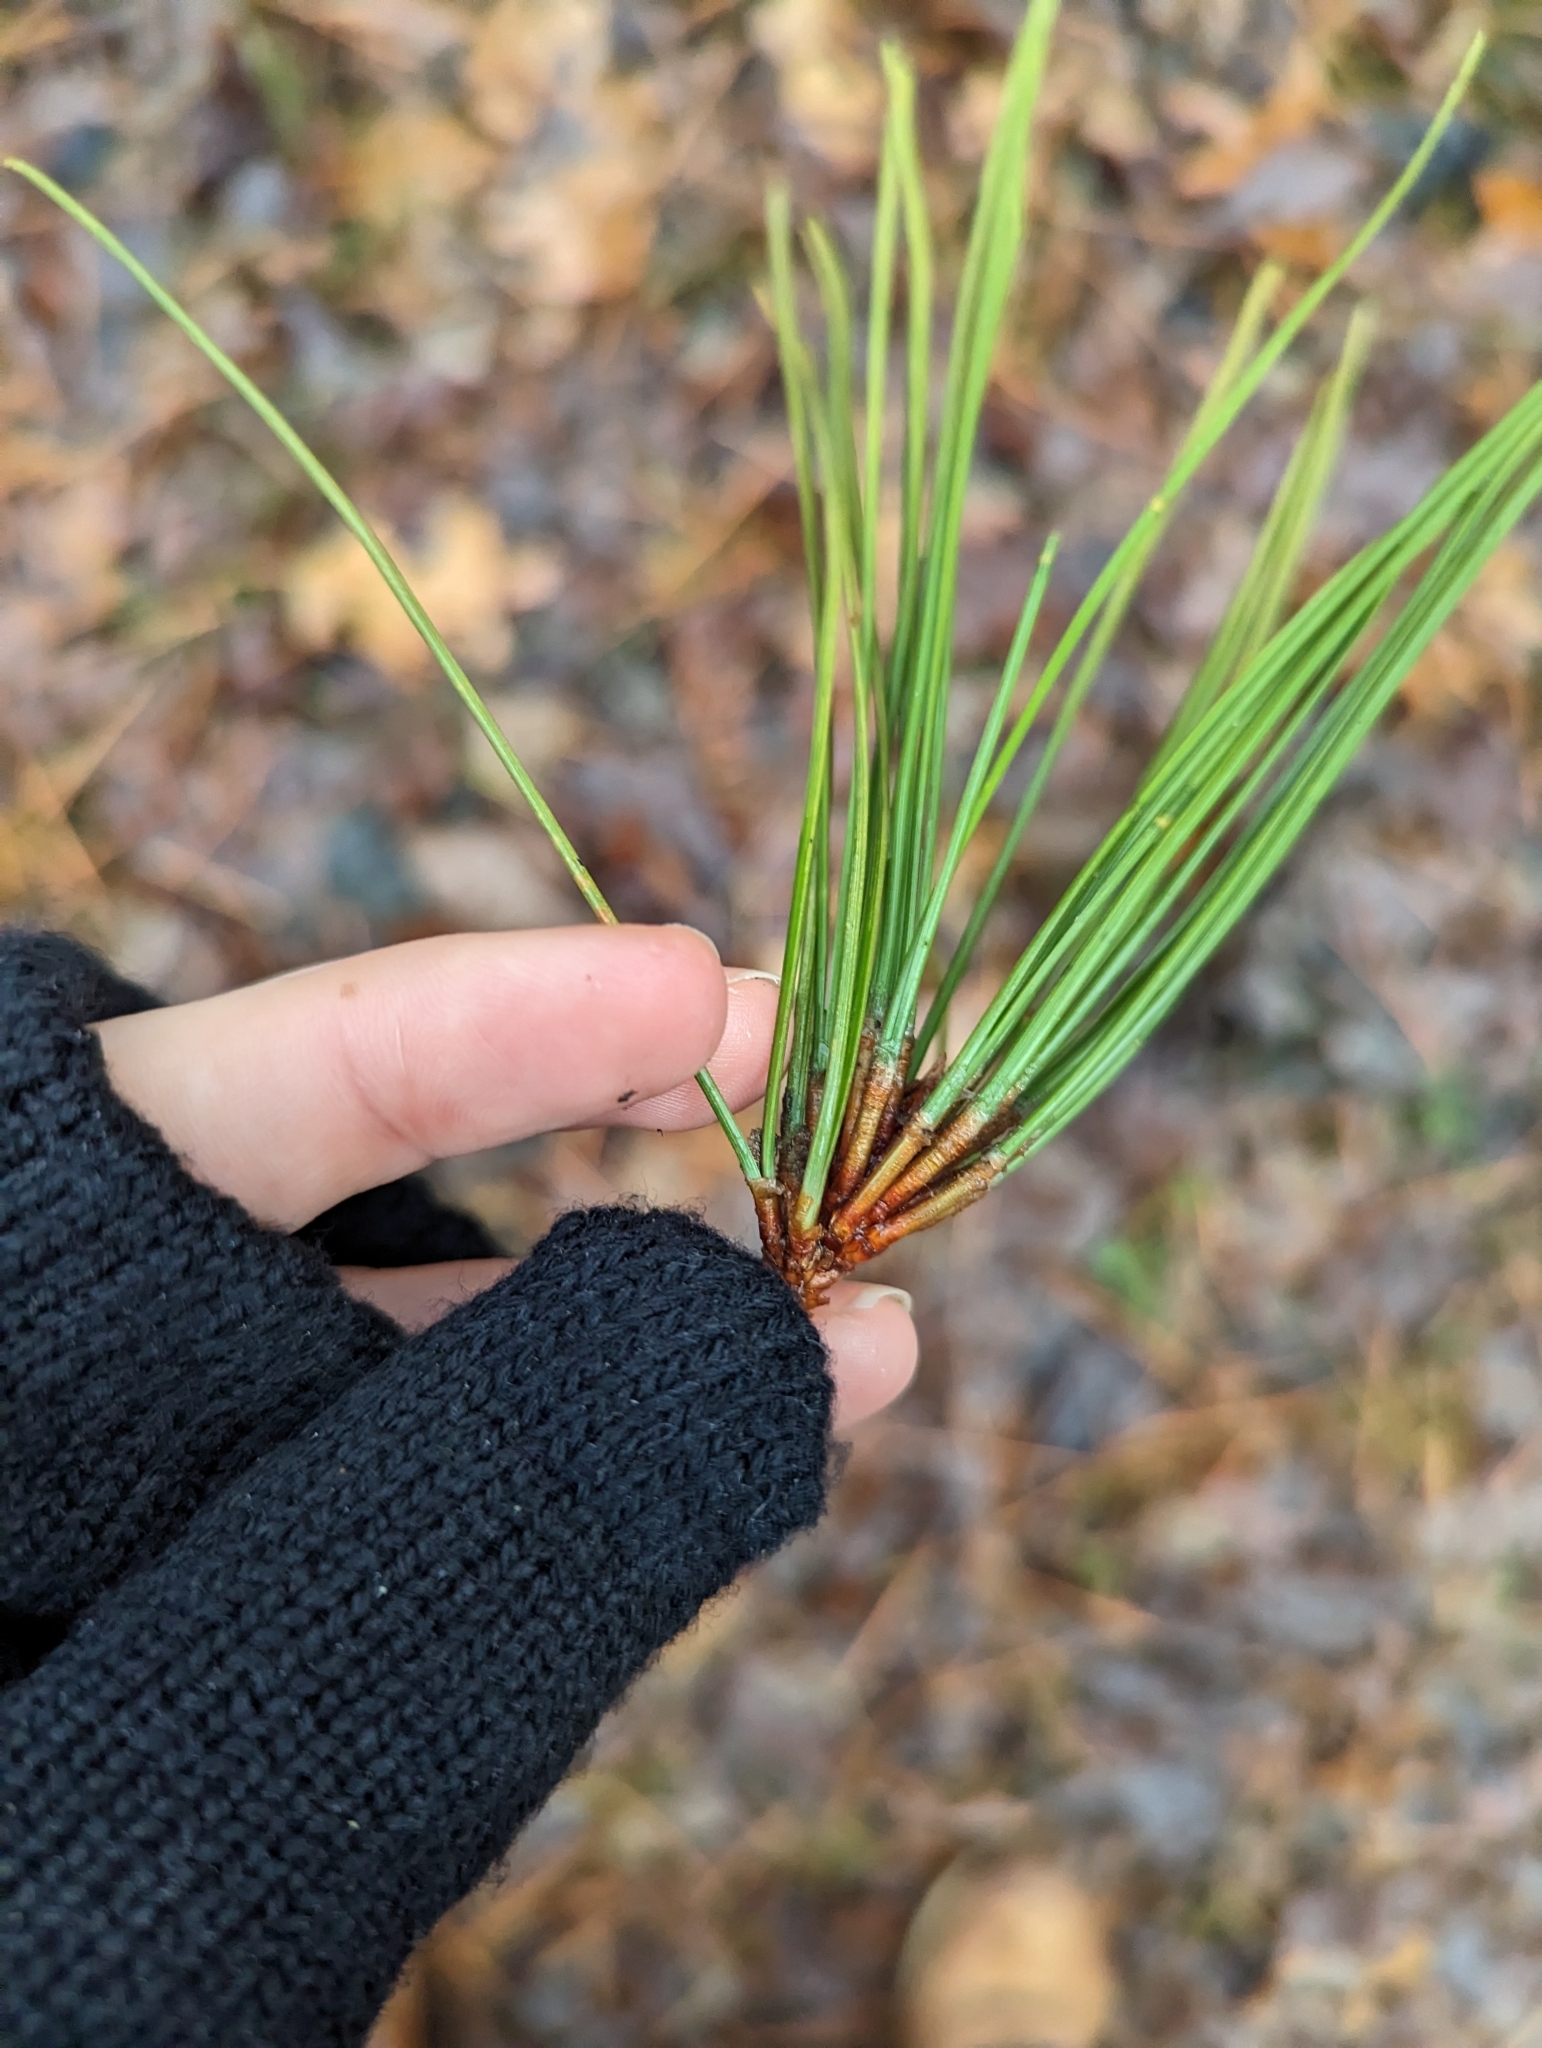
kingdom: Plantae
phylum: Tracheophyta
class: Pinopsida
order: Pinales
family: Pinaceae
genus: Pinus
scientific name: Pinus resinosa
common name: Norway pine
